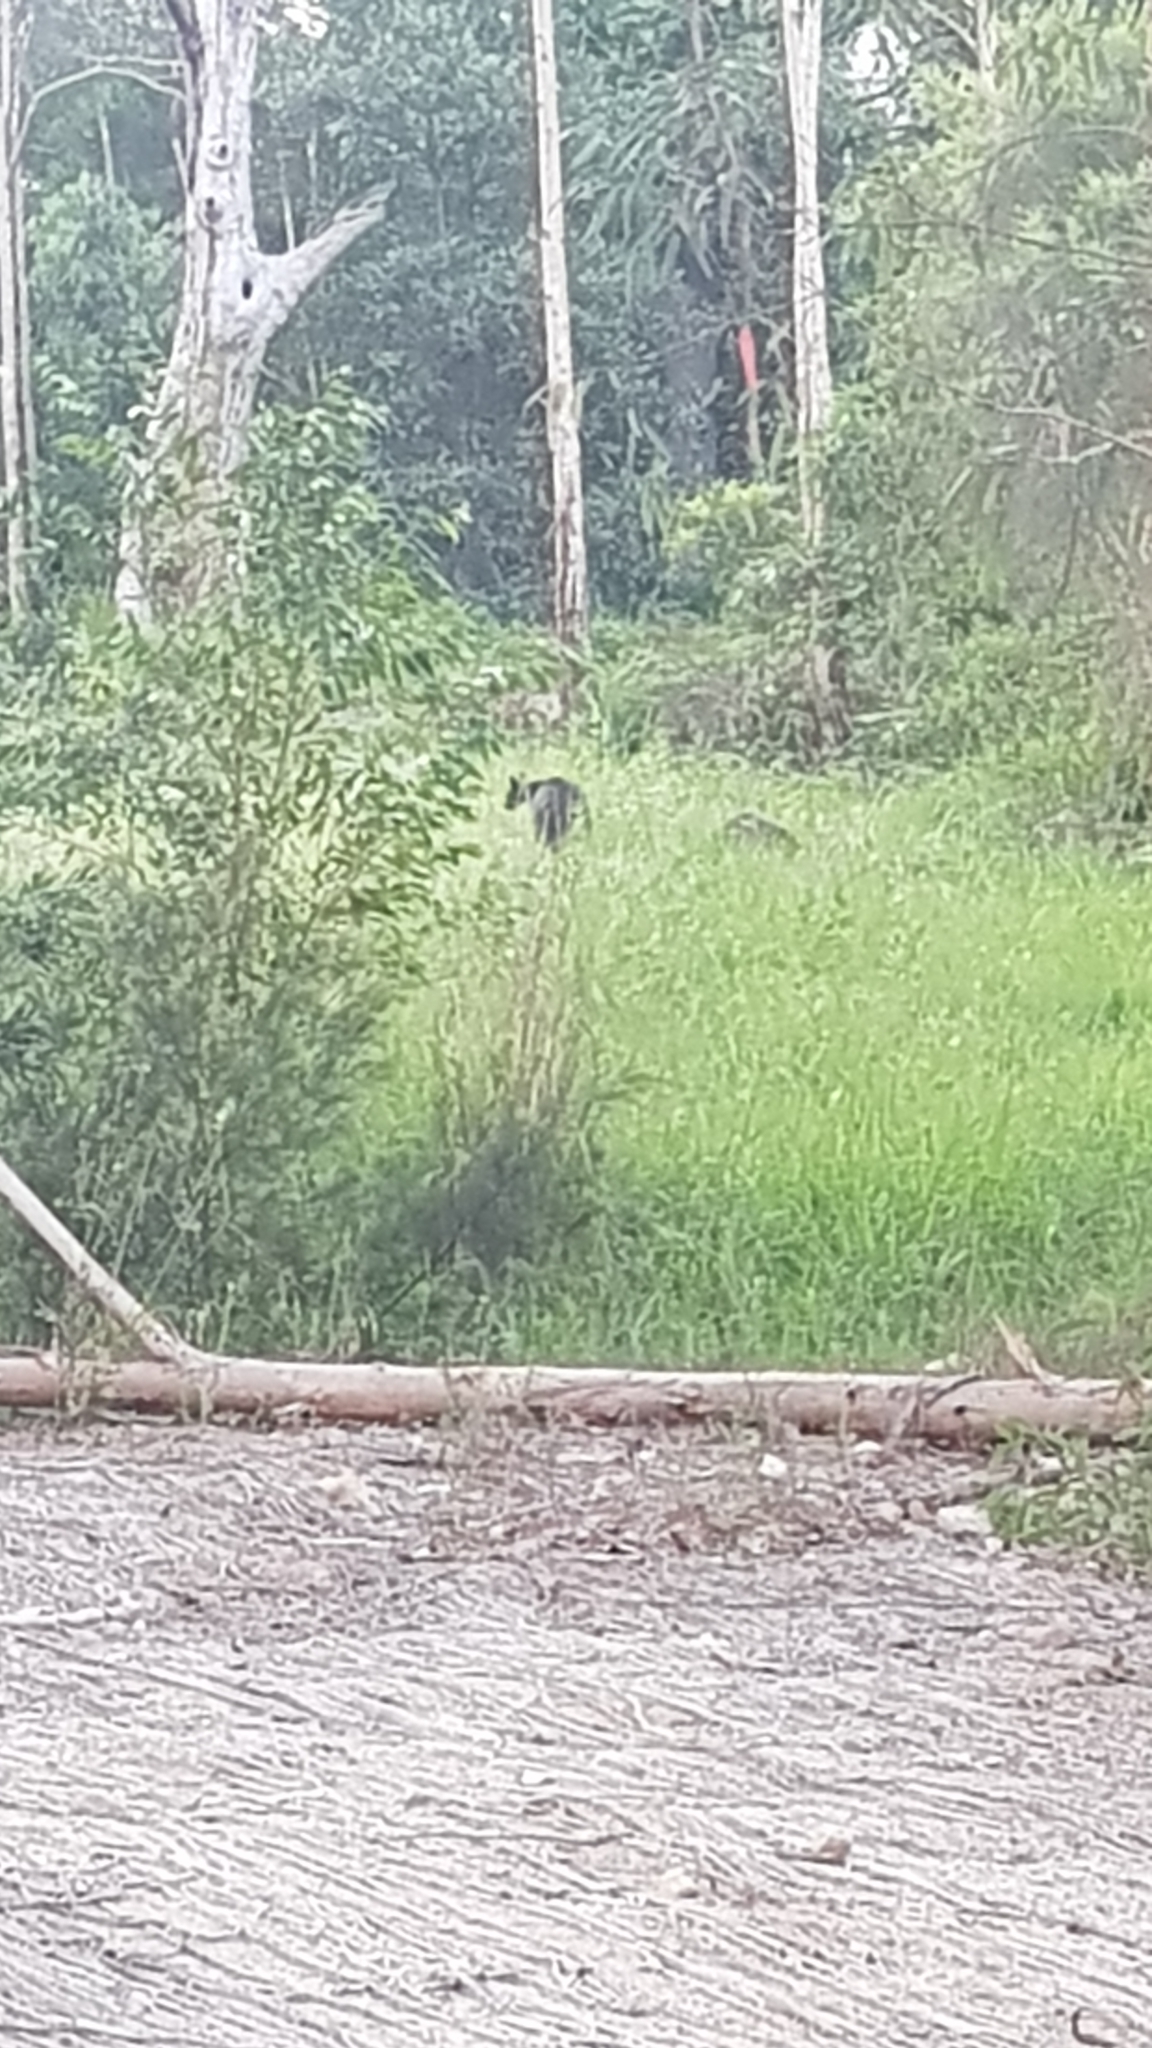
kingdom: Animalia
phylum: Chordata
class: Mammalia
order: Diprotodontia
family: Macropodidae
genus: Wallabia
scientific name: Wallabia bicolor
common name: Swamp wallaby
